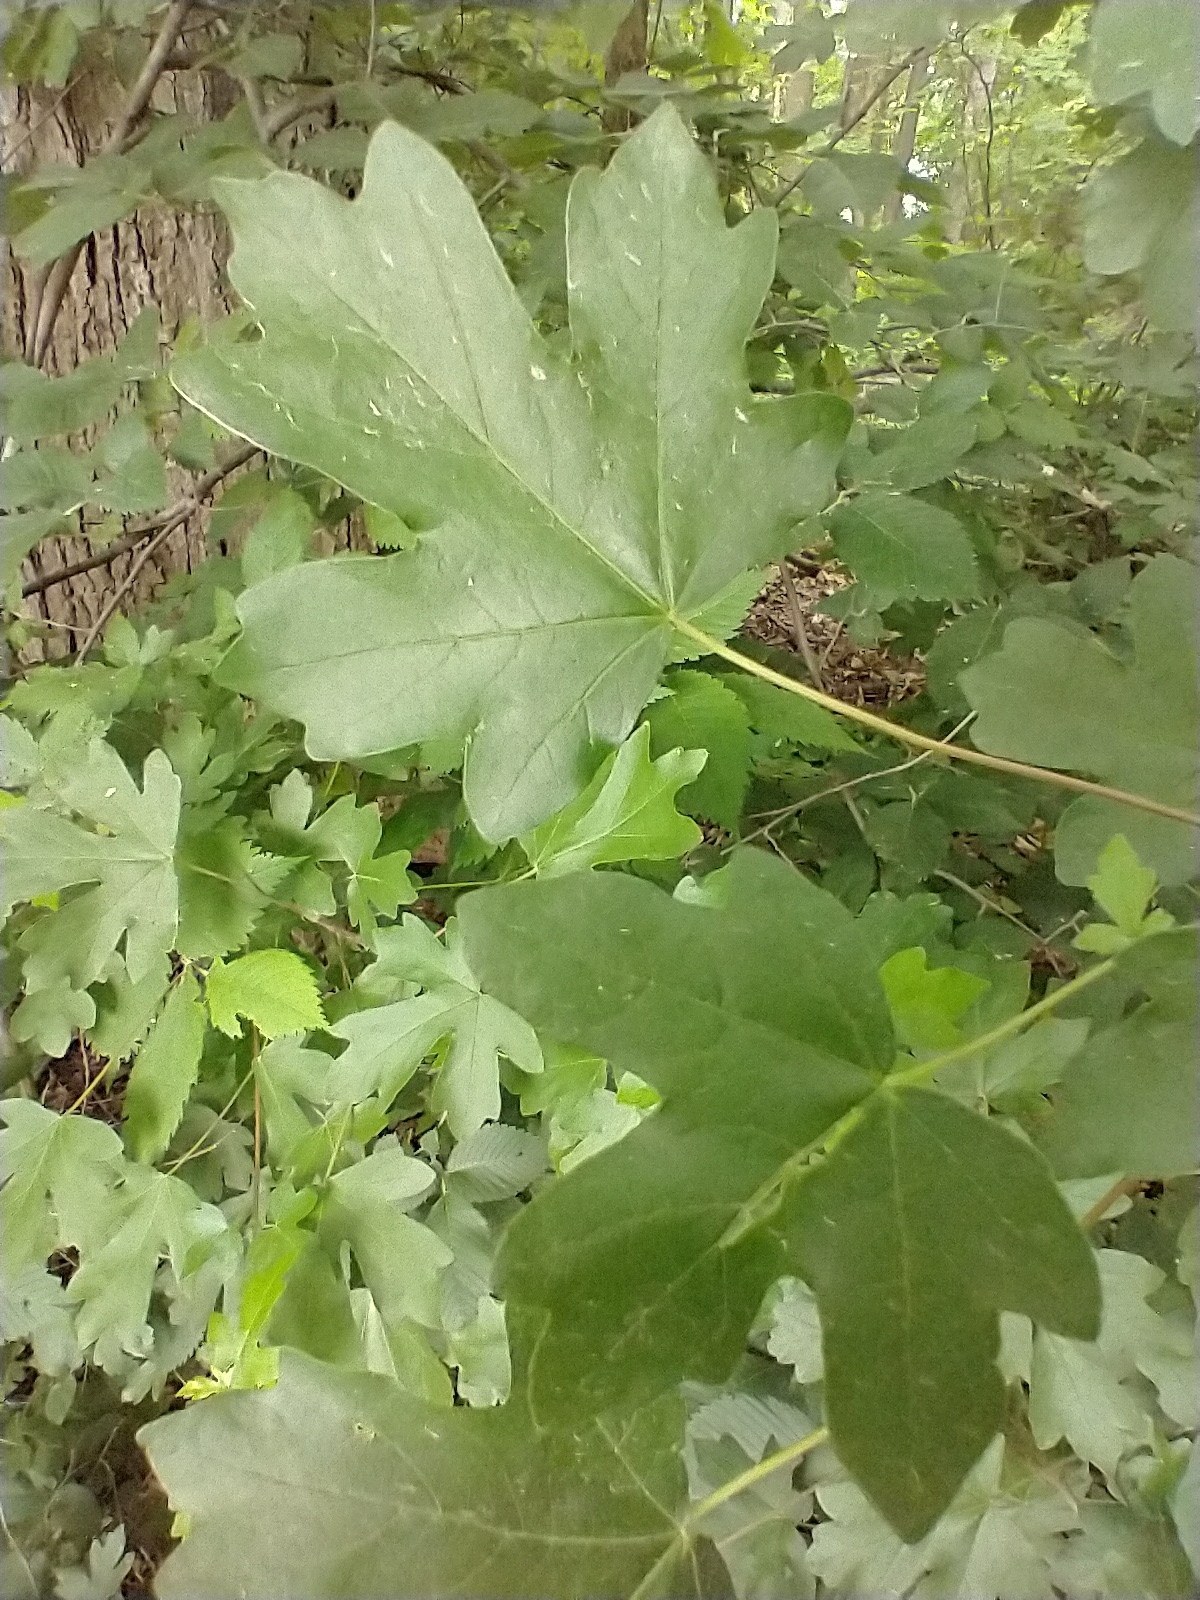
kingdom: Plantae
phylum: Tracheophyta
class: Magnoliopsida
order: Sapindales
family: Sapindaceae
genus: Acer
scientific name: Acer campestre
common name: Field maple
